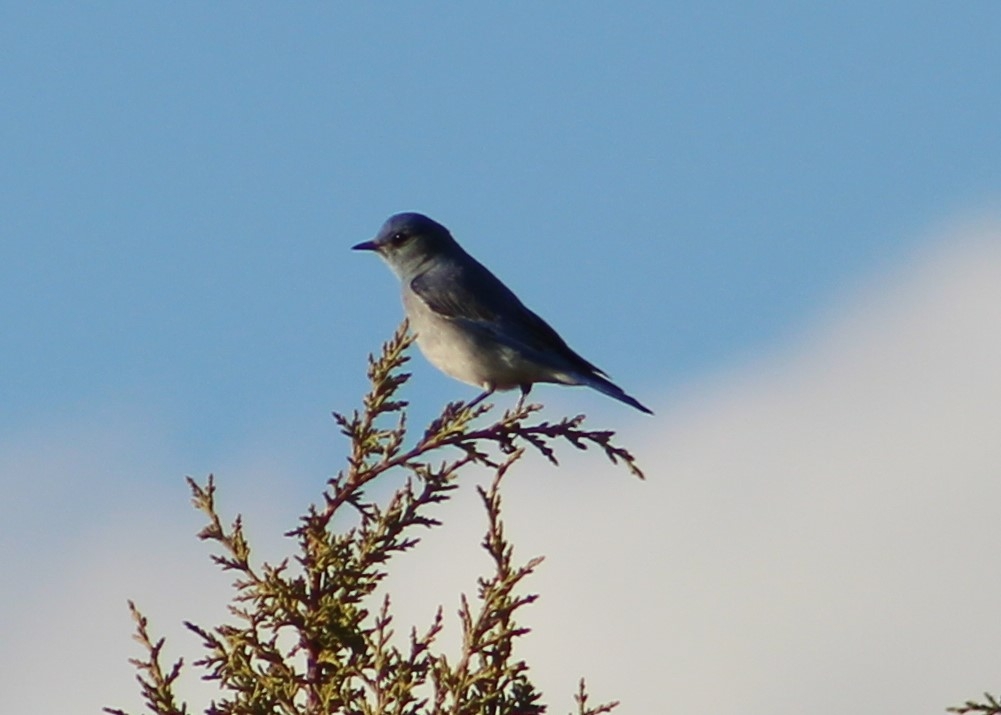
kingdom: Animalia
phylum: Chordata
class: Aves
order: Passeriformes
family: Turdidae
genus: Sialia
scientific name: Sialia currucoides
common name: Mountain bluebird
